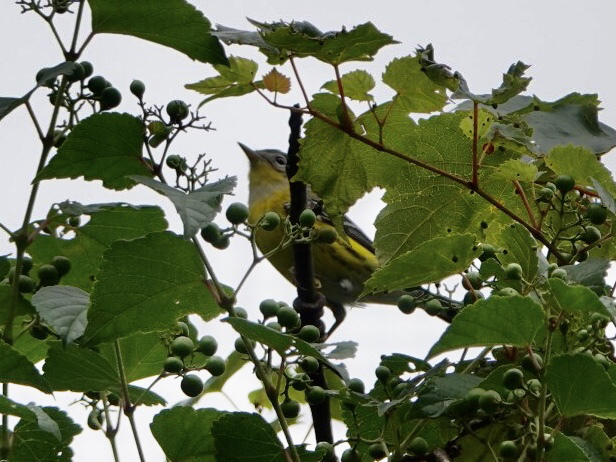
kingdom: Animalia
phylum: Chordata
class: Aves
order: Passeriformes
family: Parulidae
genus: Setophaga
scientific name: Setophaga magnolia
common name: Magnolia warbler
